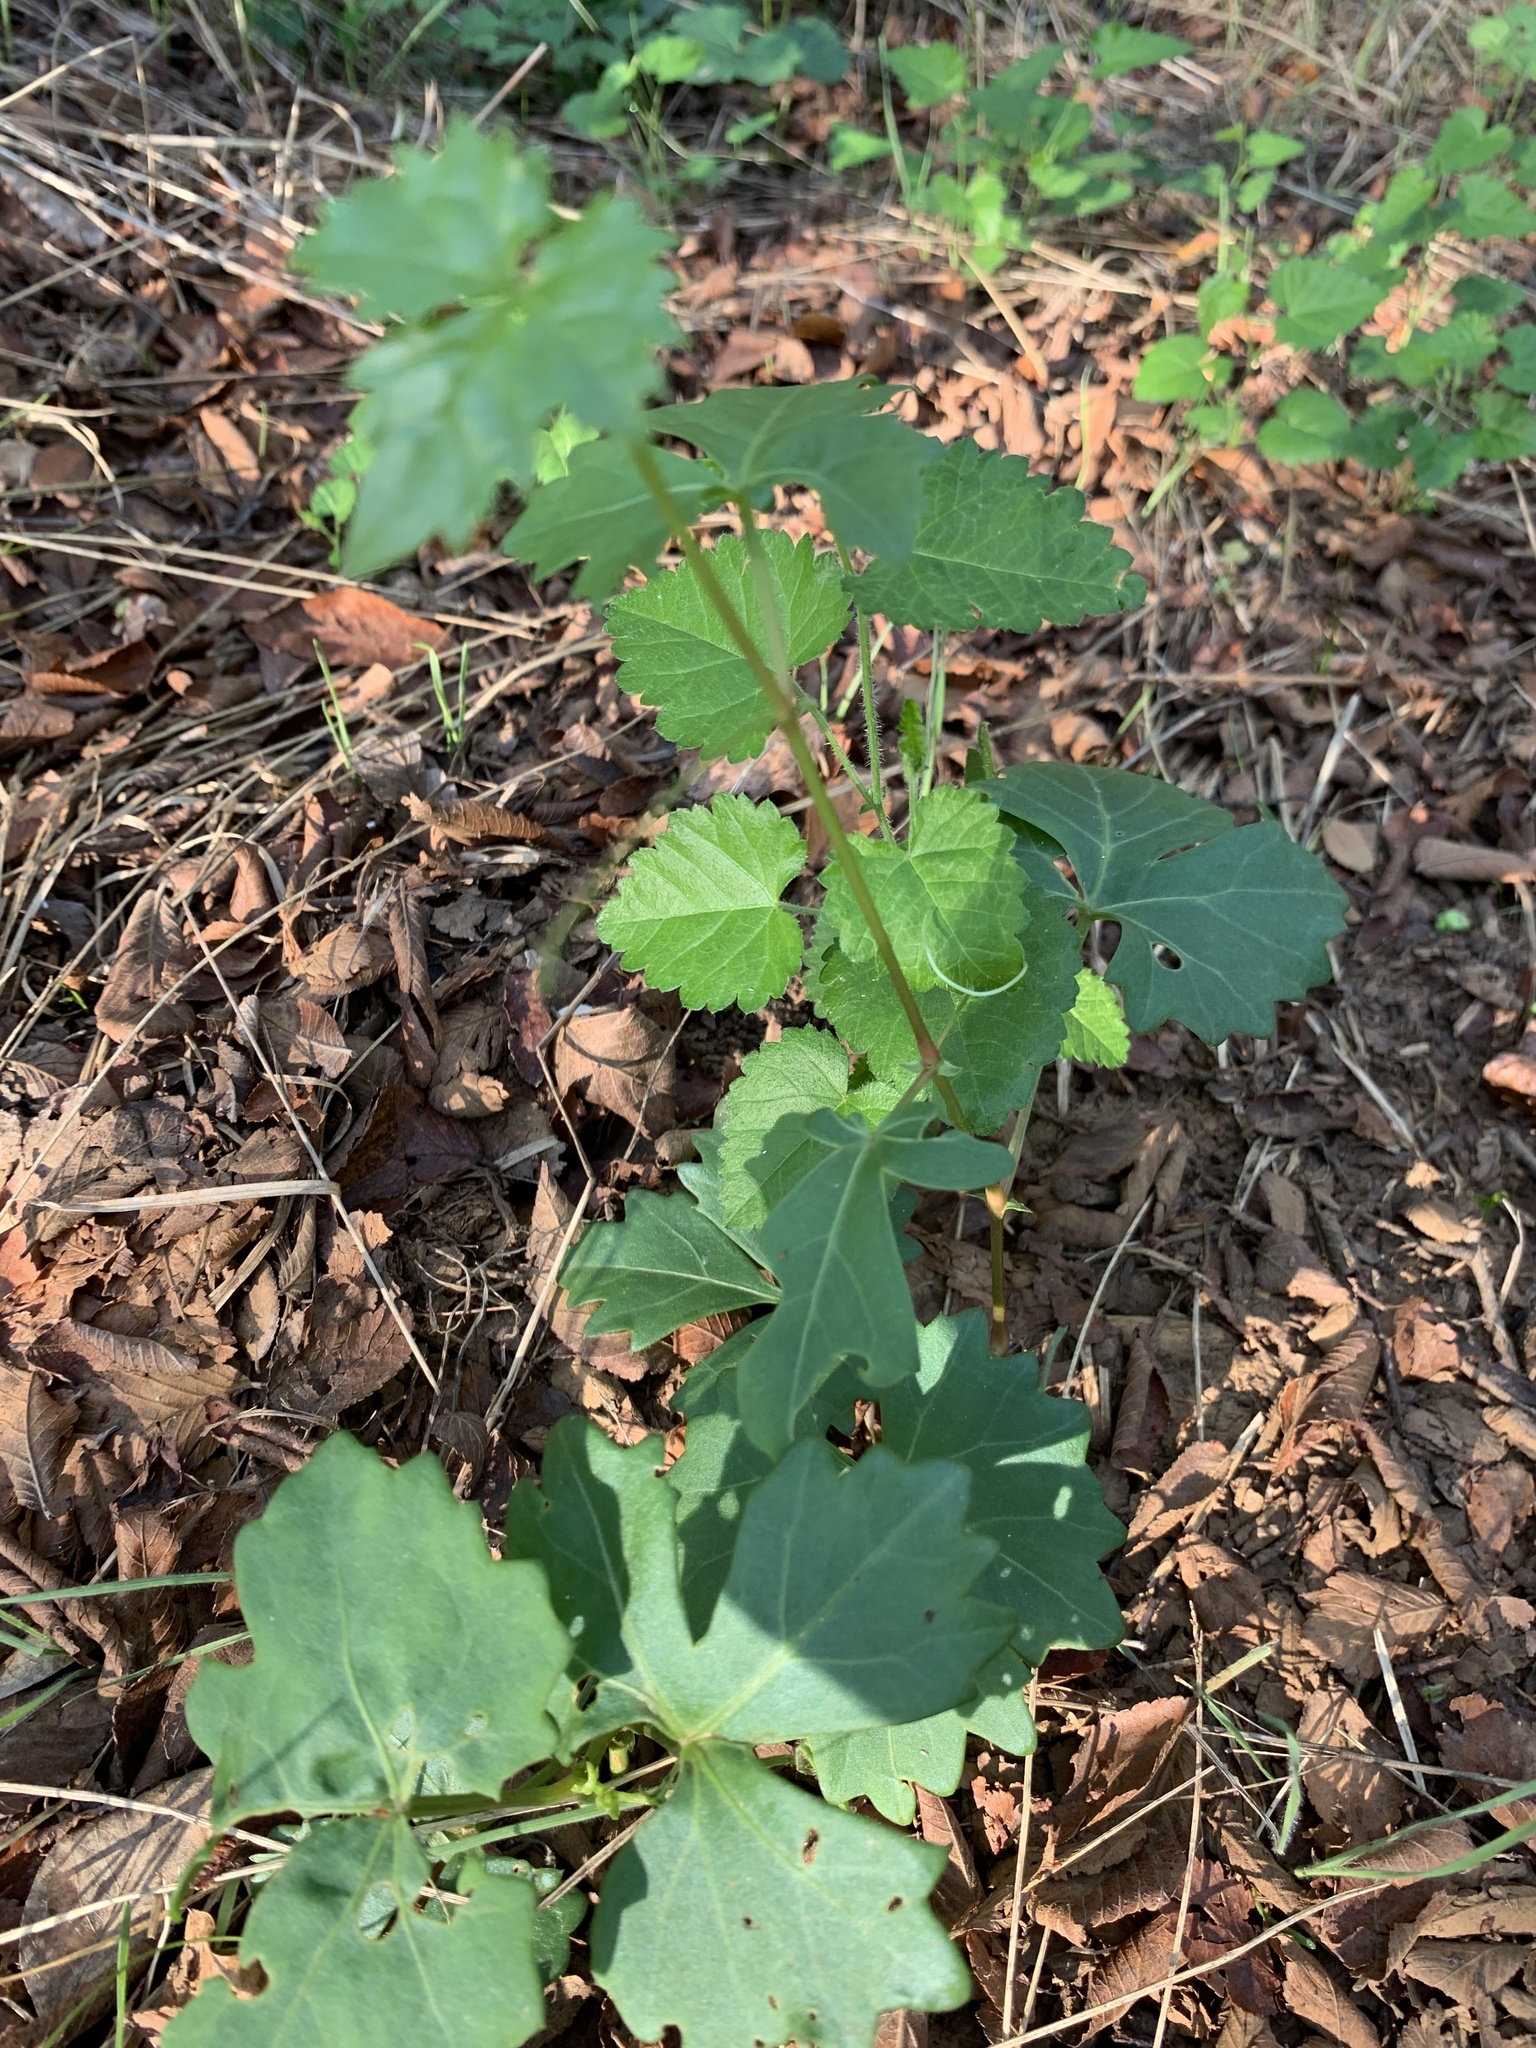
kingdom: Plantae
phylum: Tracheophyta
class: Magnoliopsida
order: Vitales
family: Vitaceae
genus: Cissus
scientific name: Cissus trifoliata
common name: Vine-sorrel
